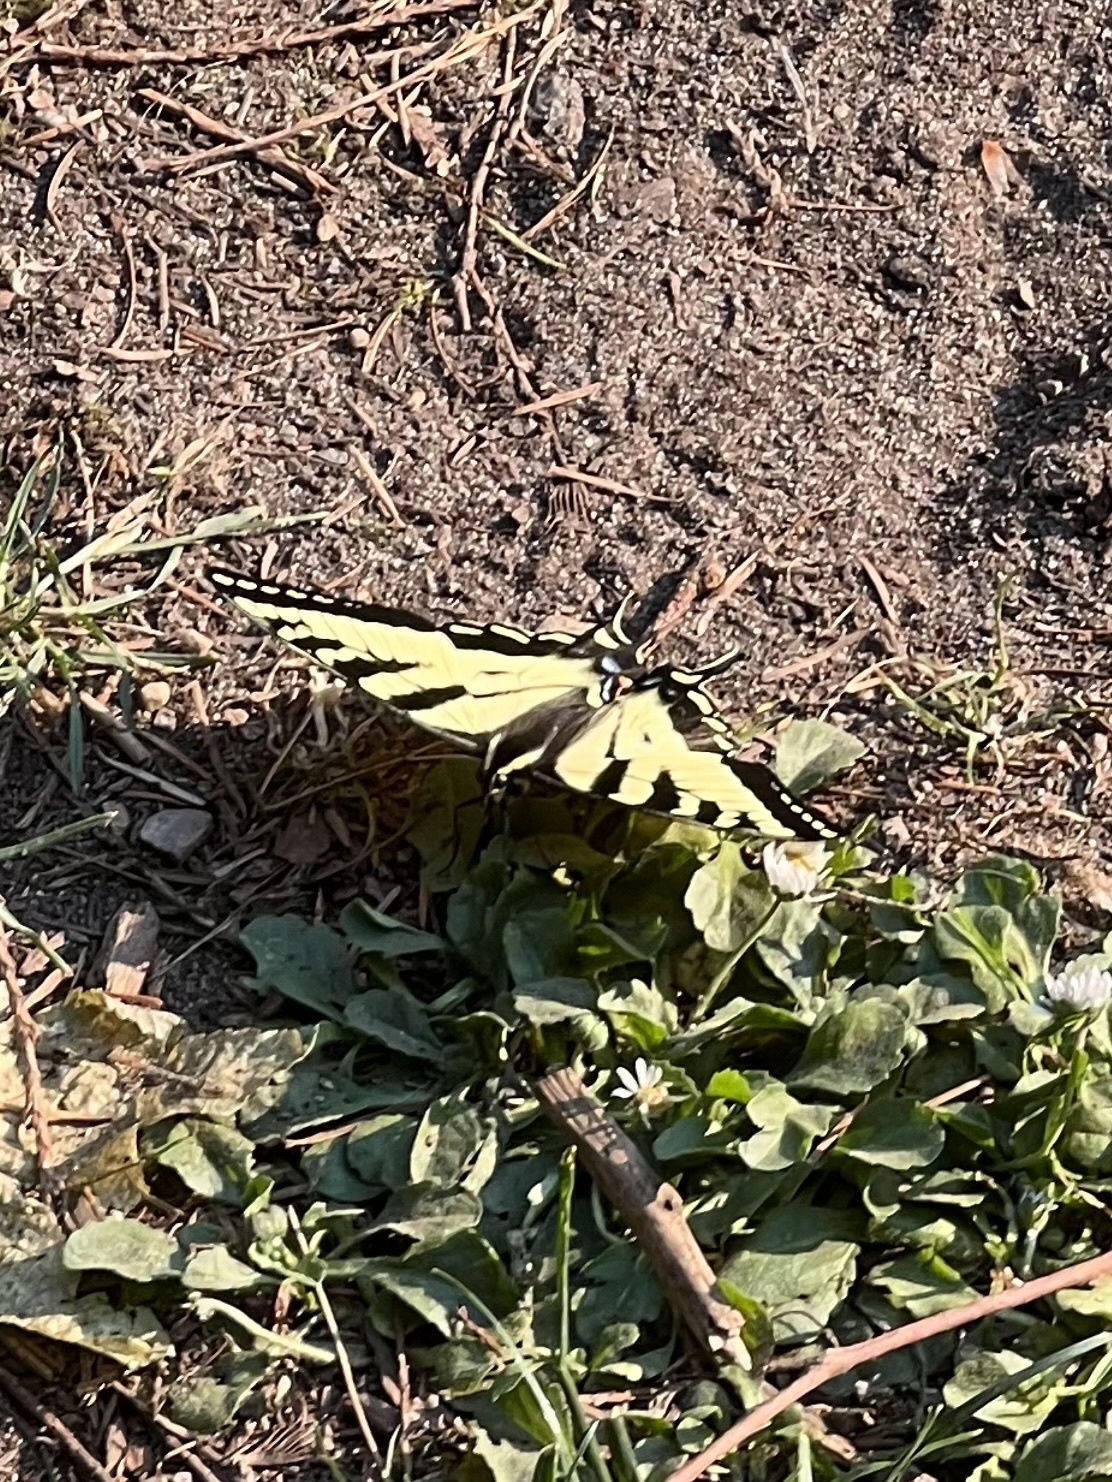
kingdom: Animalia
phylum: Arthropoda
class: Insecta
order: Lepidoptera
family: Papilionidae
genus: Papilio
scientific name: Papilio rutulus
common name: Western tiger swallowtail
